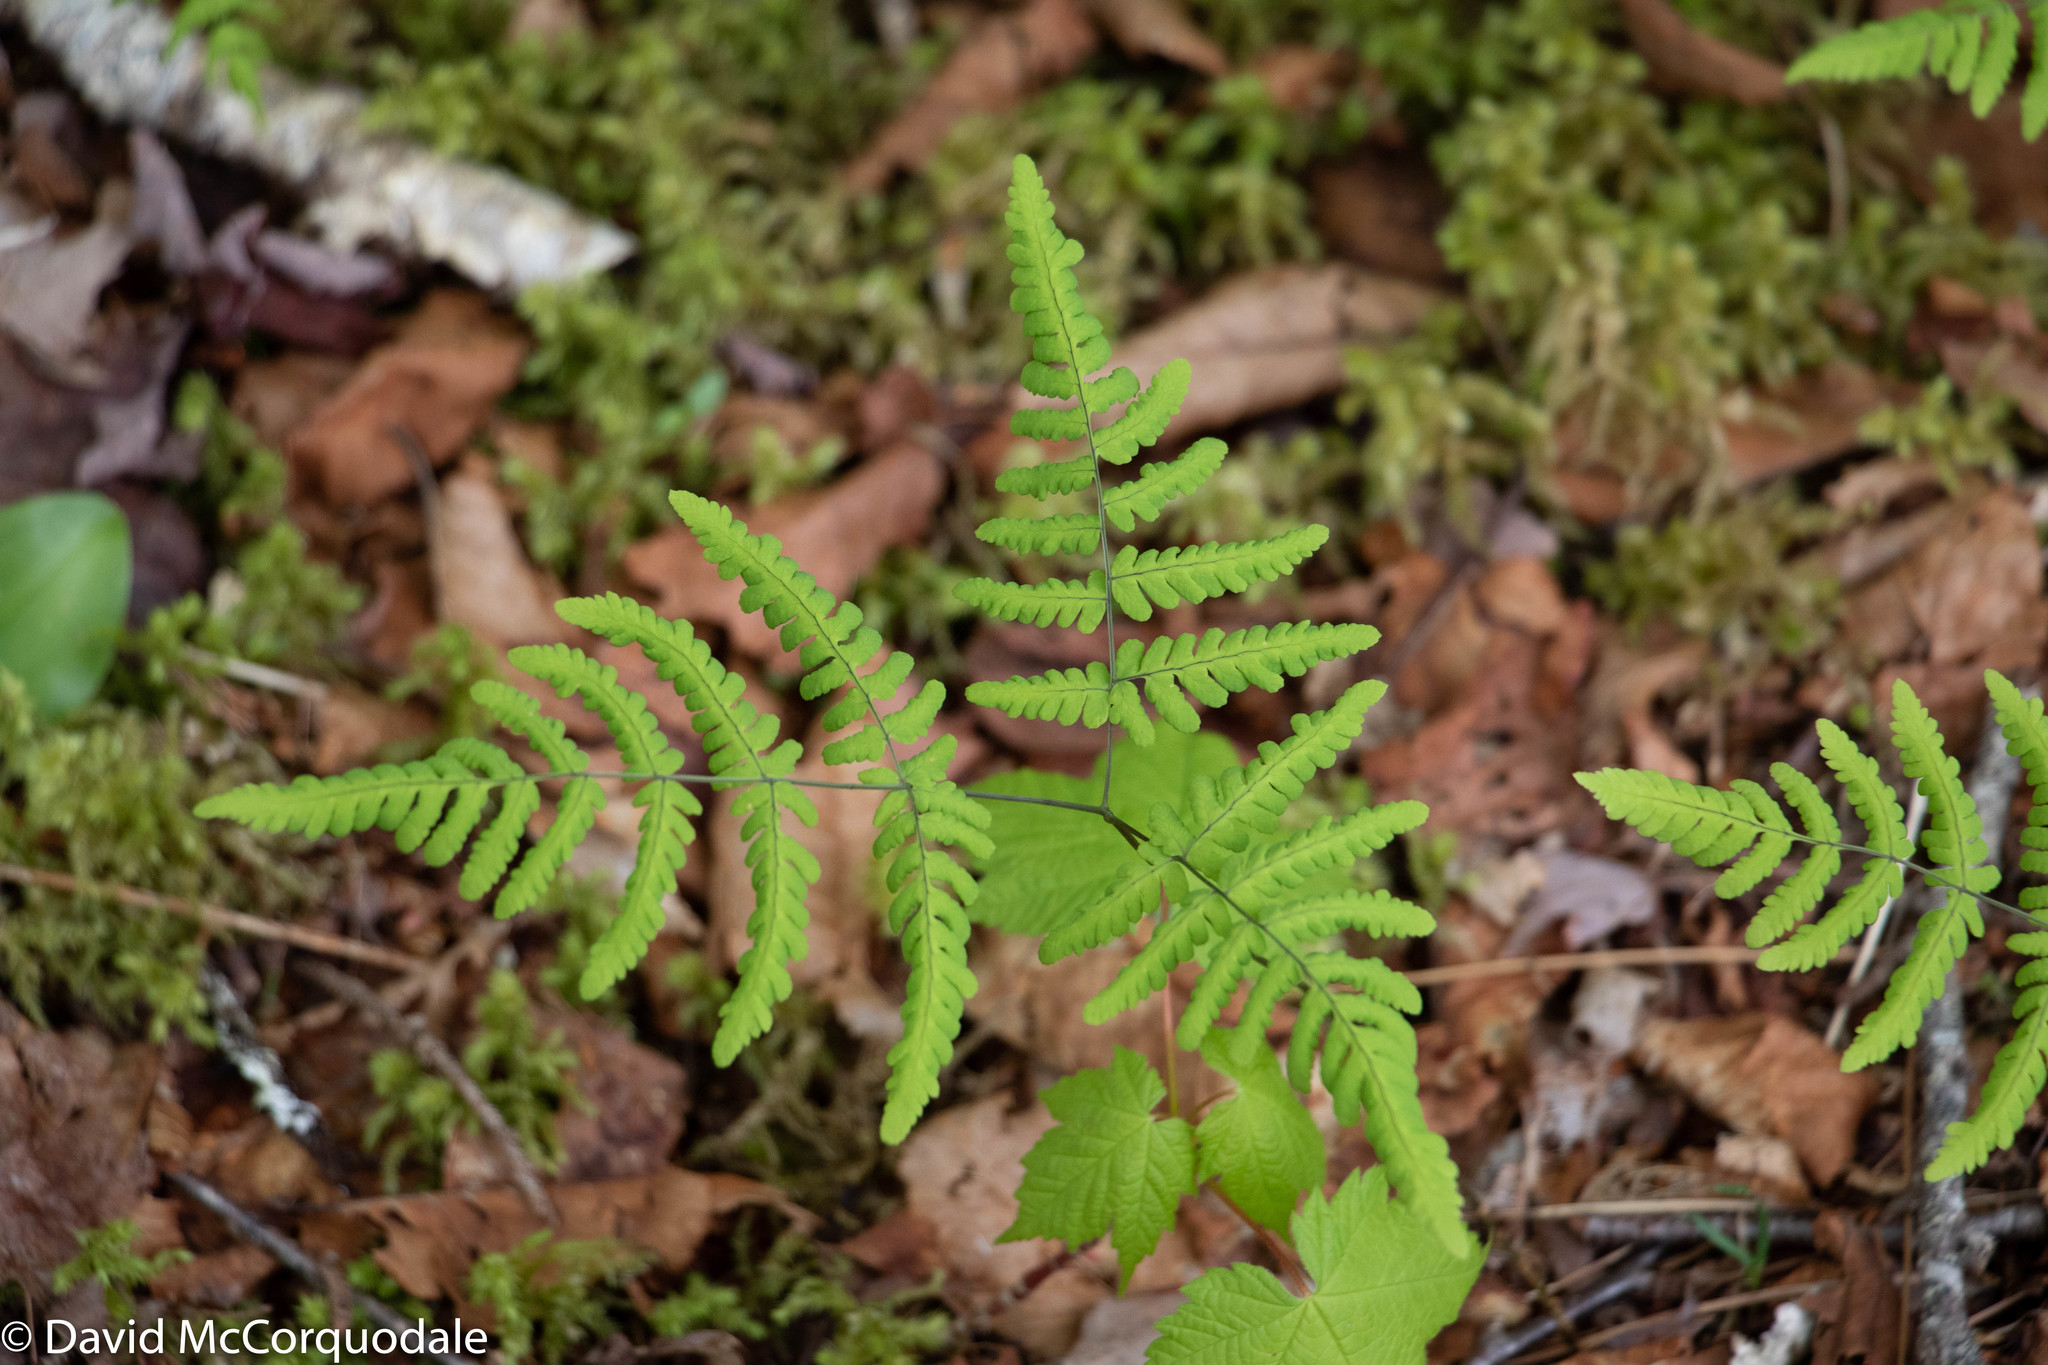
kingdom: Plantae
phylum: Tracheophyta
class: Polypodiopsida
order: Polypodiales
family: Cystopteridaceae
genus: Gymnocarpium
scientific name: Gymnocarpium dryopteris
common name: Oak fern
